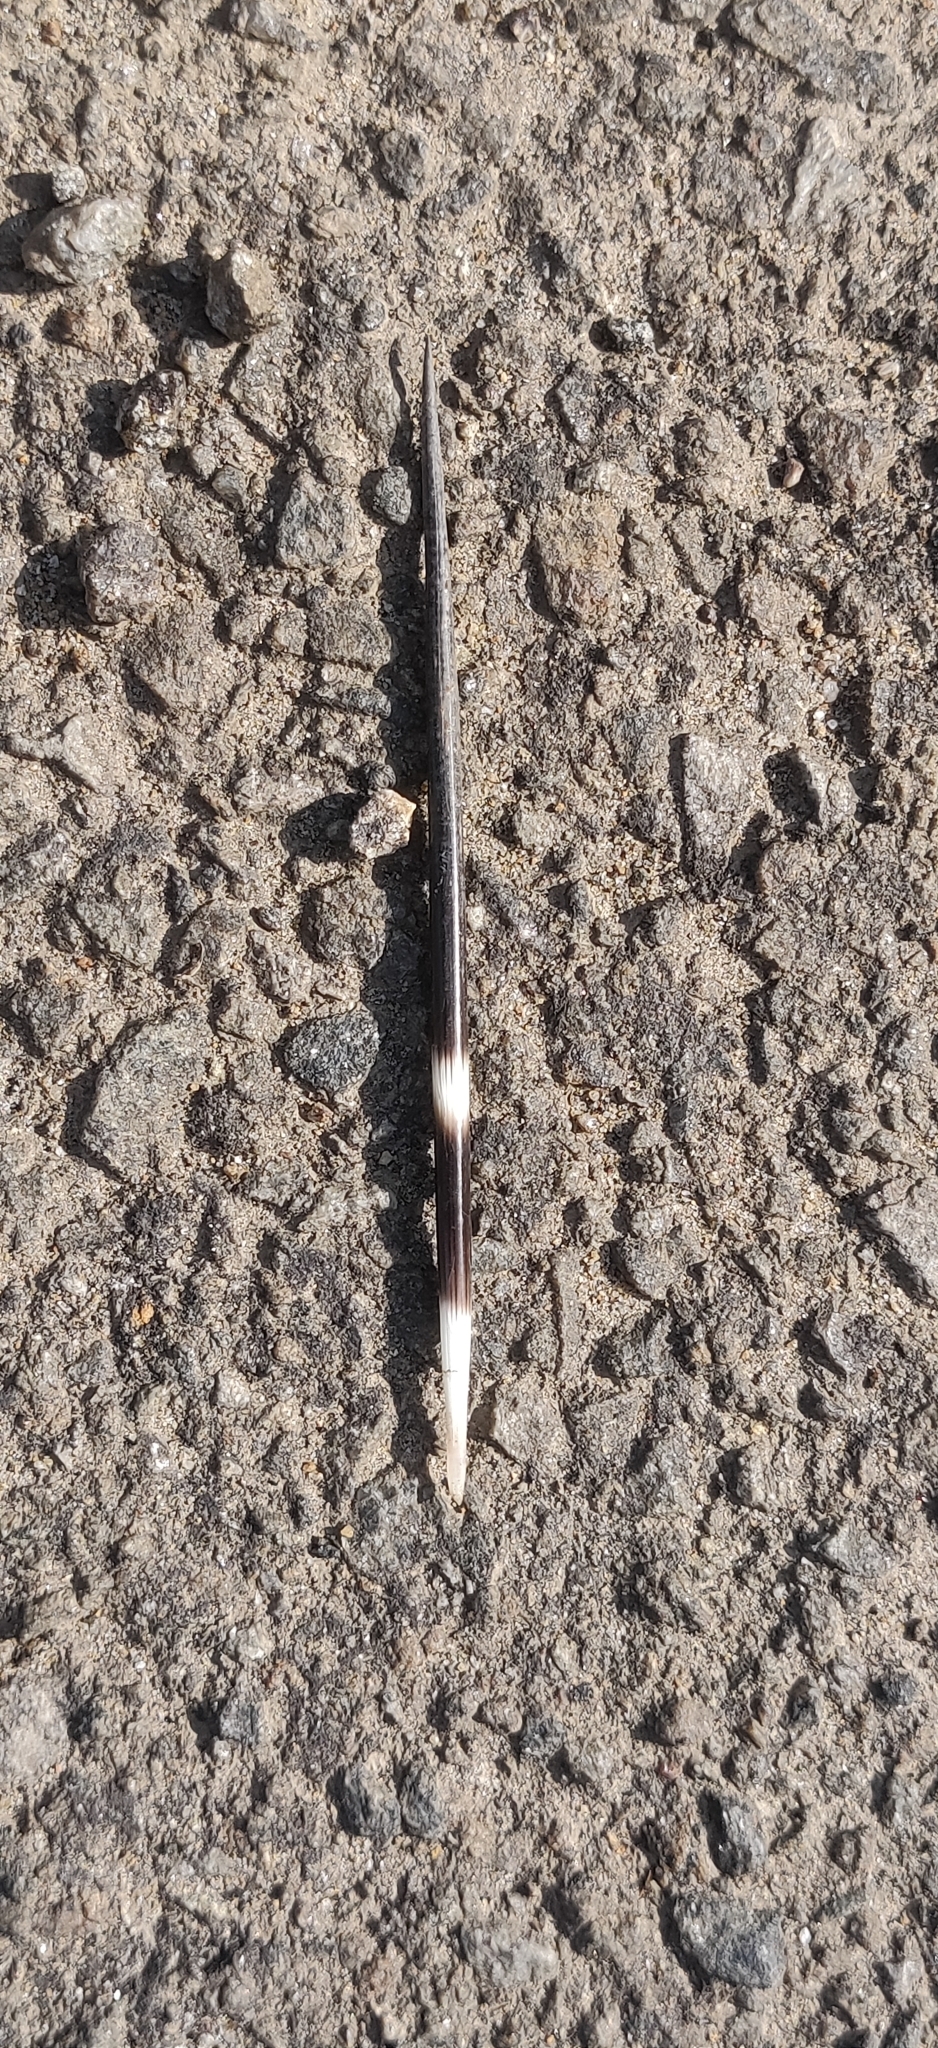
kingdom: Animalia
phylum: Chordata
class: Mammalia
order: Rodentia
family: Hystricidae
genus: Hystrix
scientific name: Hystrix indica
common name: Indian crested porcupine
